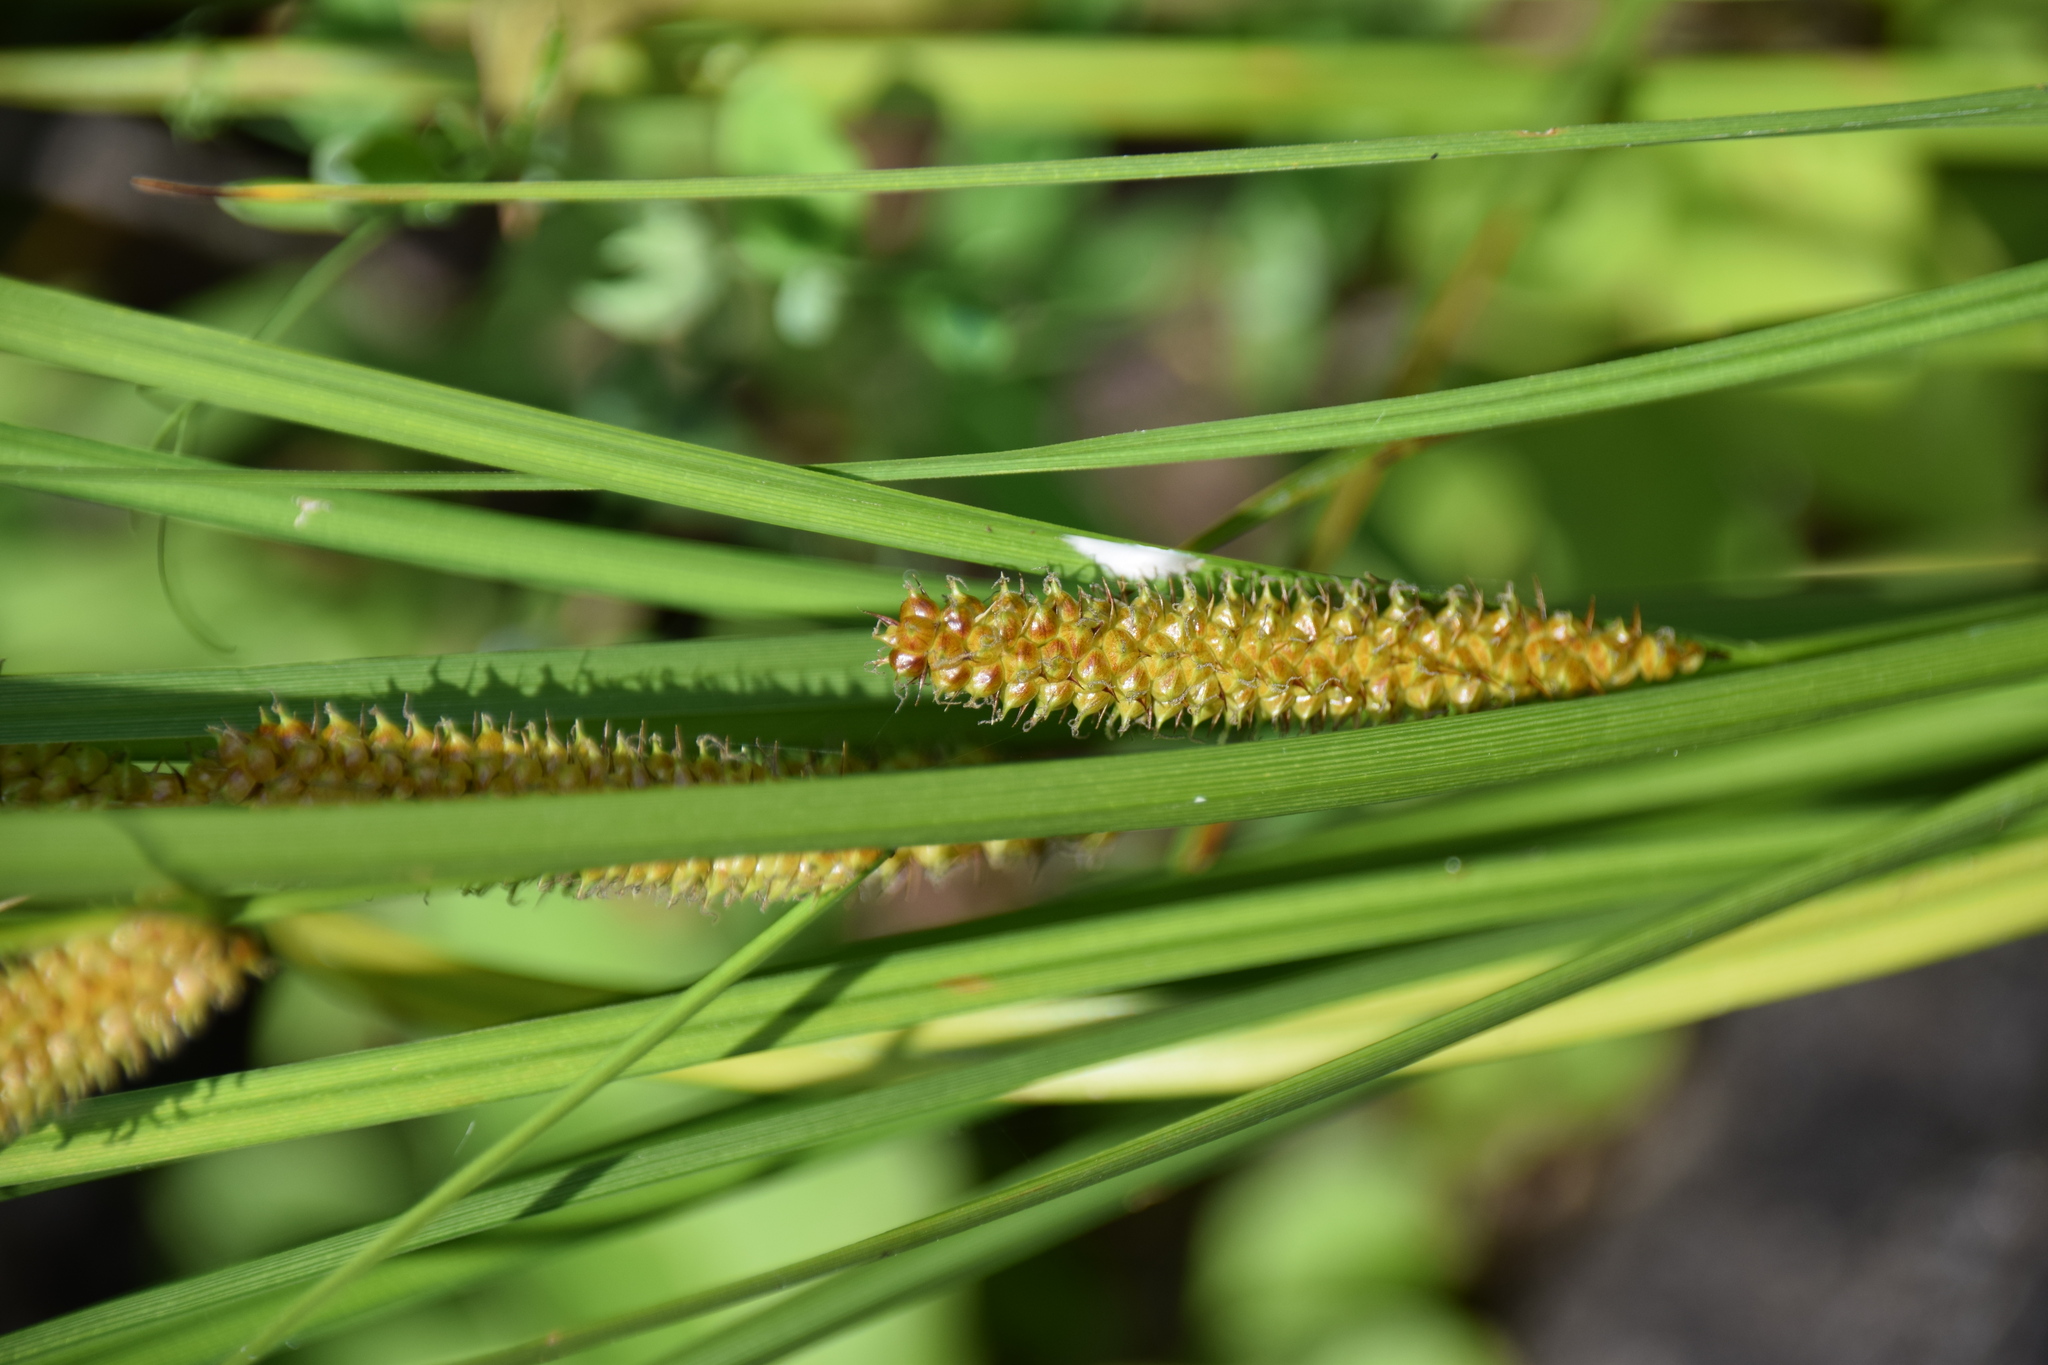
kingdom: Plantae
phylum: Tracheophyta
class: Liliopsida
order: Poales
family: Cyperaceae
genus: Carex
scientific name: Carex utriculata
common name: Beaked sedge
